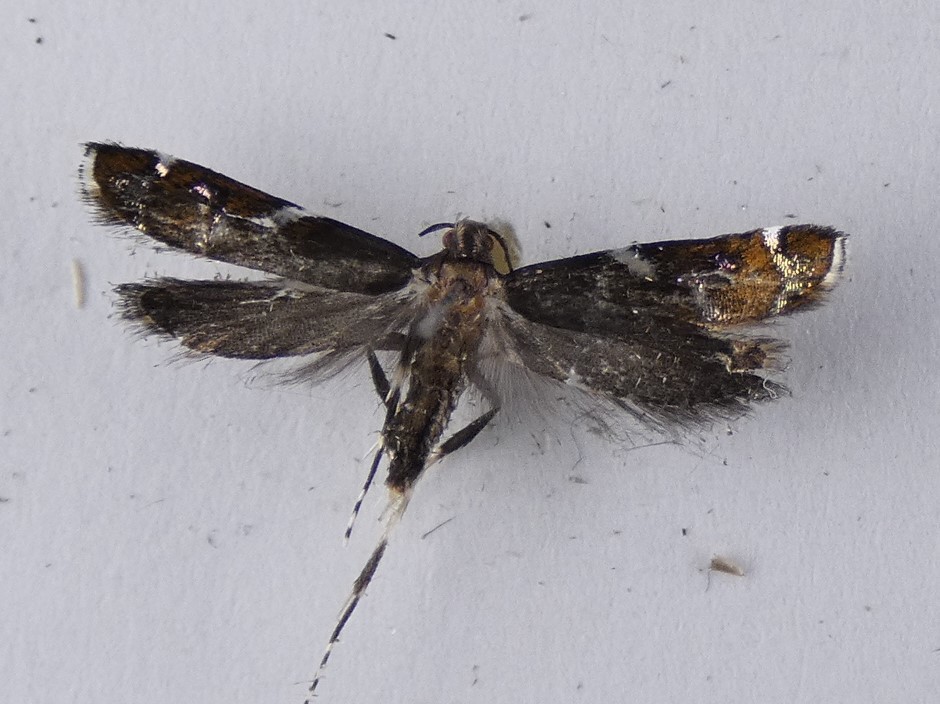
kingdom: Animalia
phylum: Arthropoda
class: Insecta
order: Lepidoptera
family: Depressariidae
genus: Compsistis
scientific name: Compsistis bifaciella
